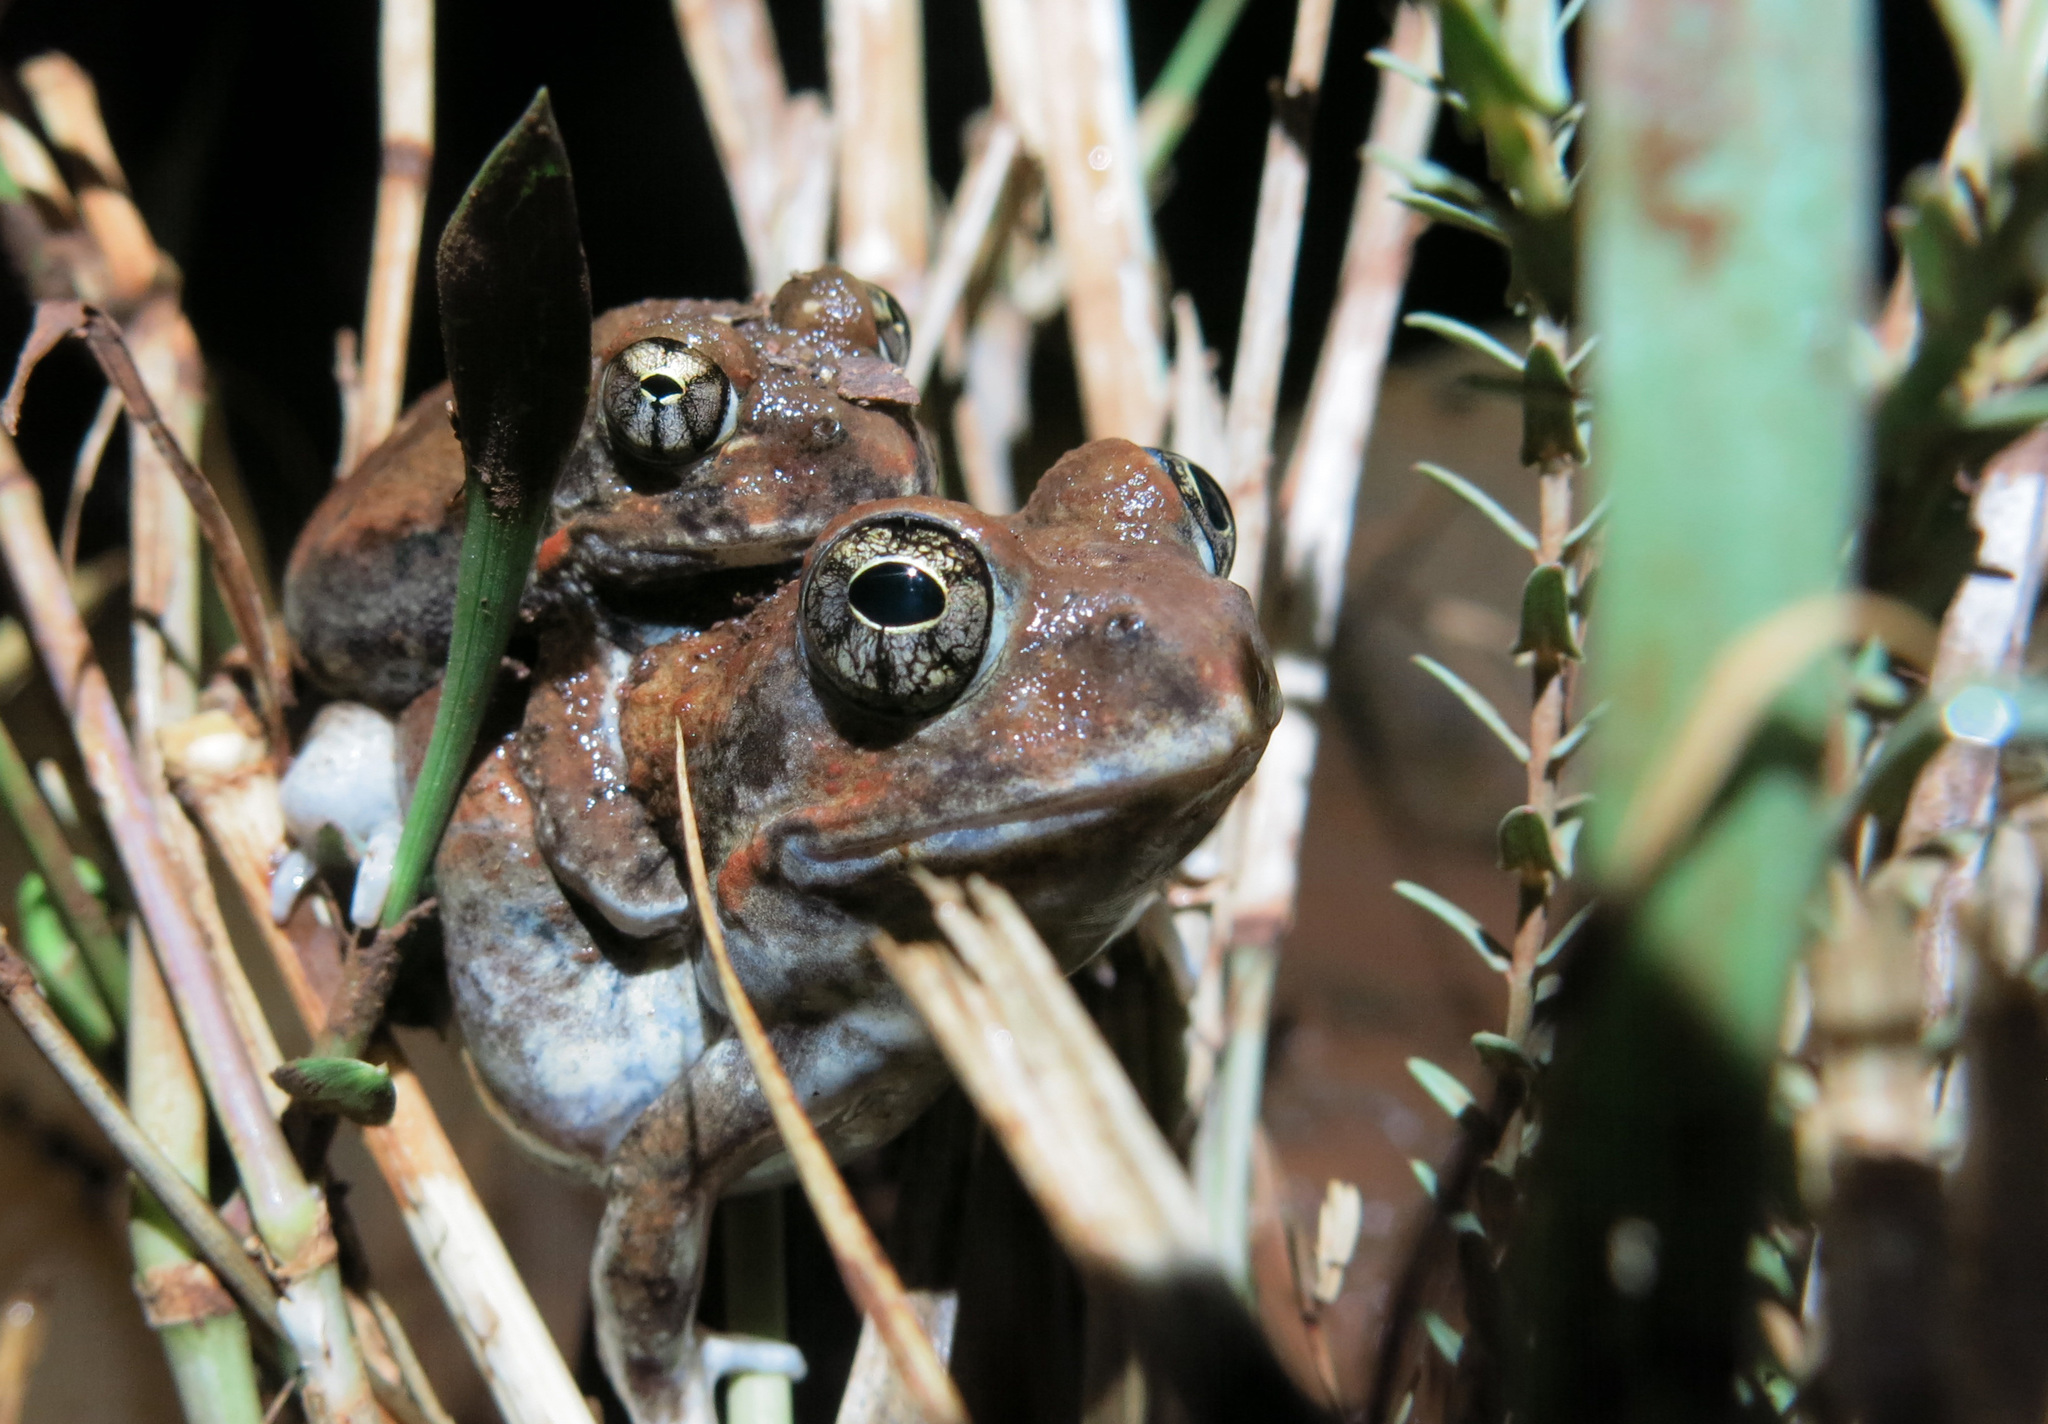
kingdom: Animalia
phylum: Chordata
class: Amphibia
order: Anura
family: Pyxicephalidae
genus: Tomopterna
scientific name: Tomopterna natalensis
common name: Natal sand frog
